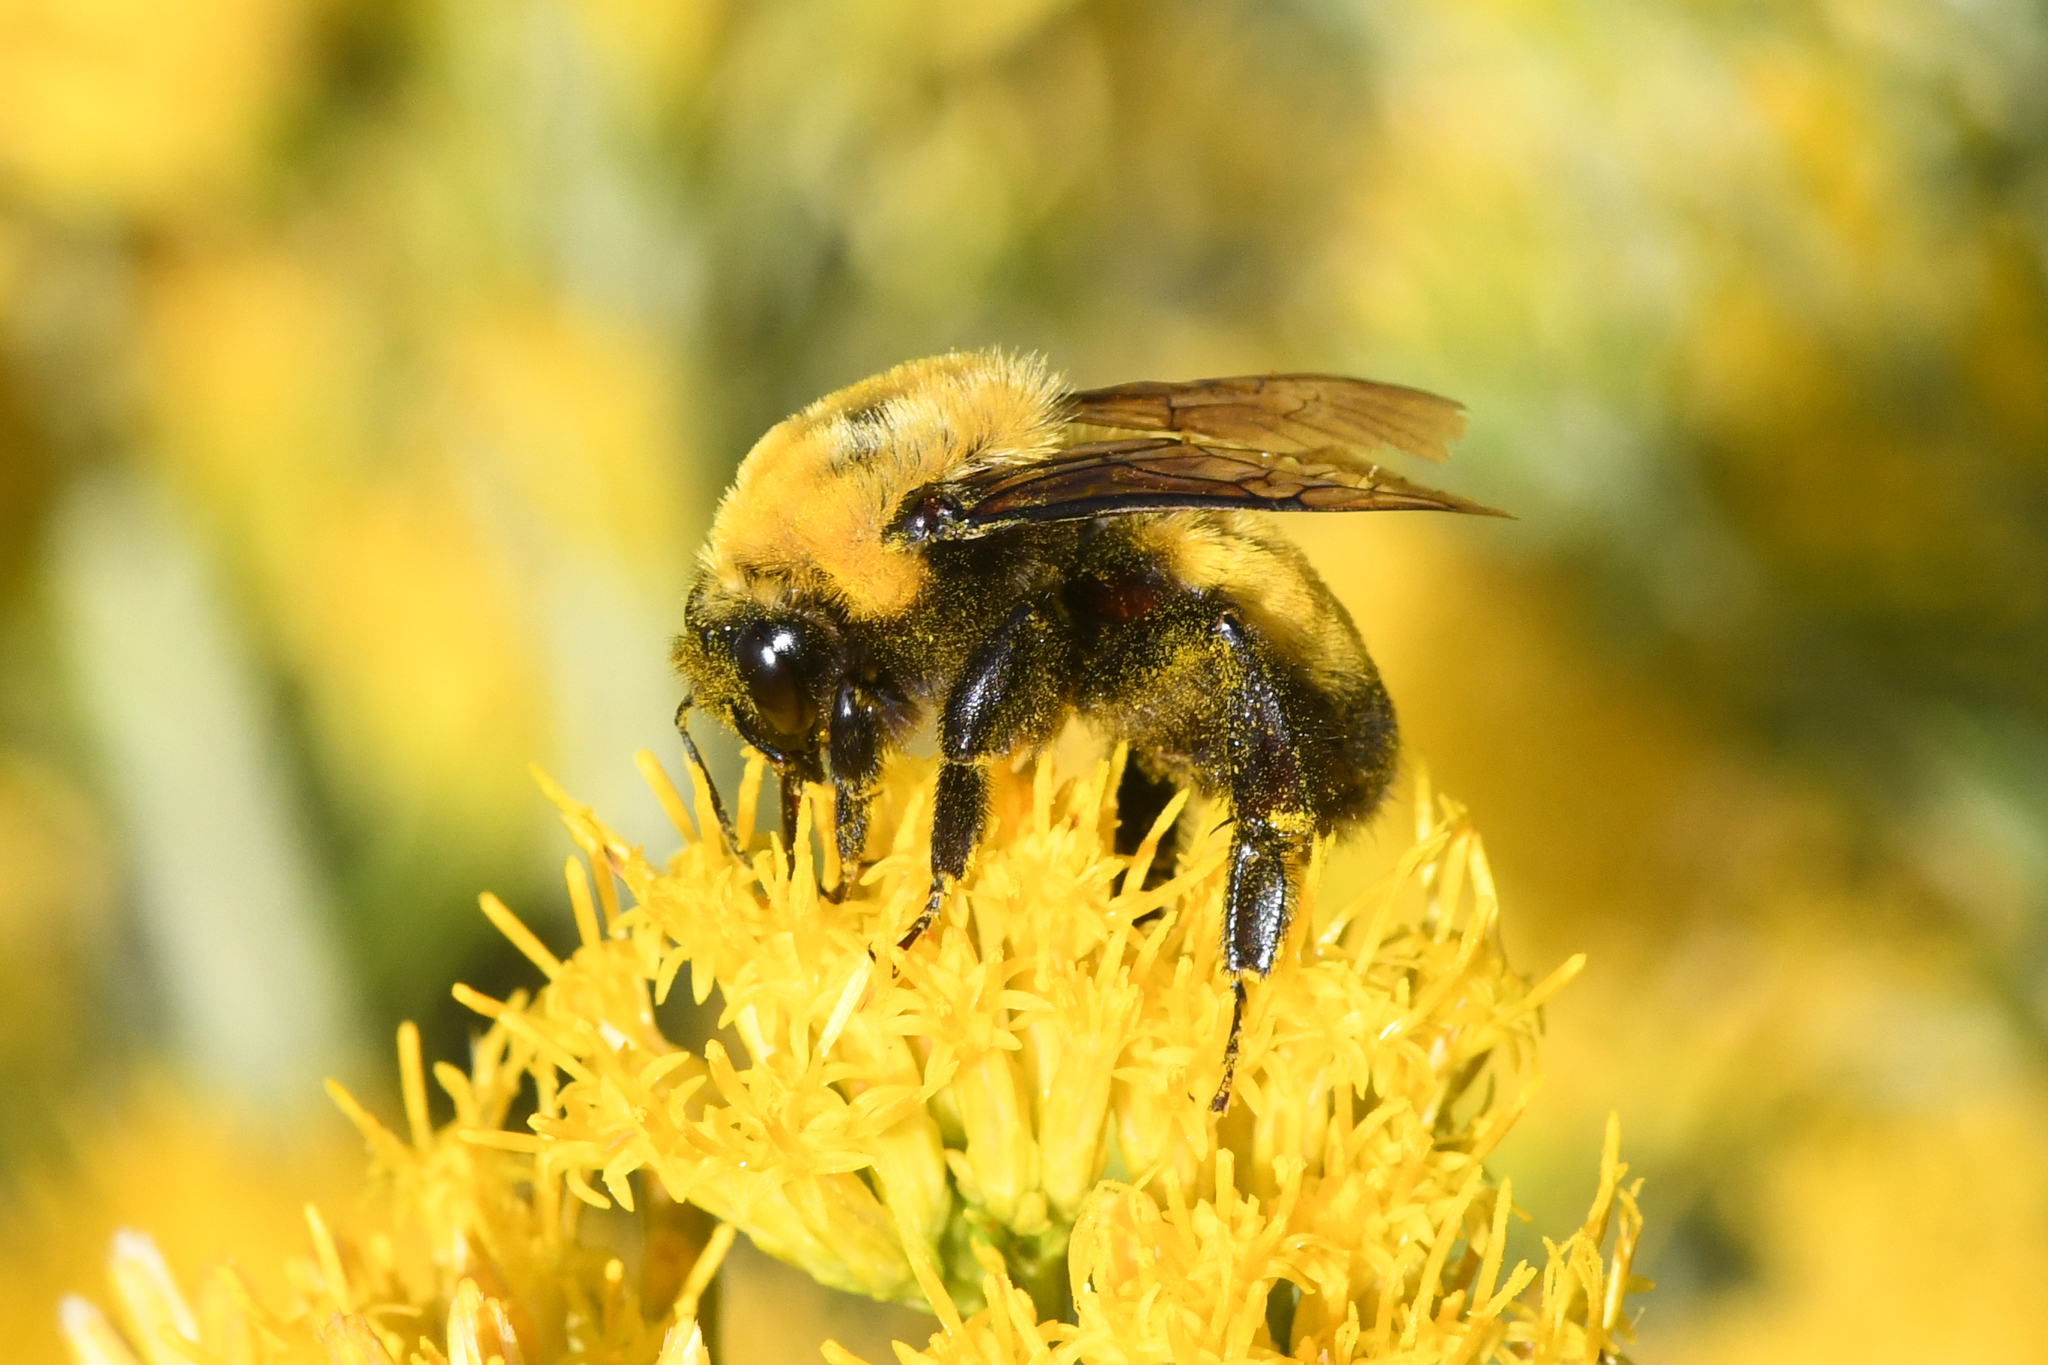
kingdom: Animalia
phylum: Arthropoda
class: Insecta
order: Hymenoptera
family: Apidae
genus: Bombus
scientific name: Bombus morrisoni
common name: Morrison bumble bee
